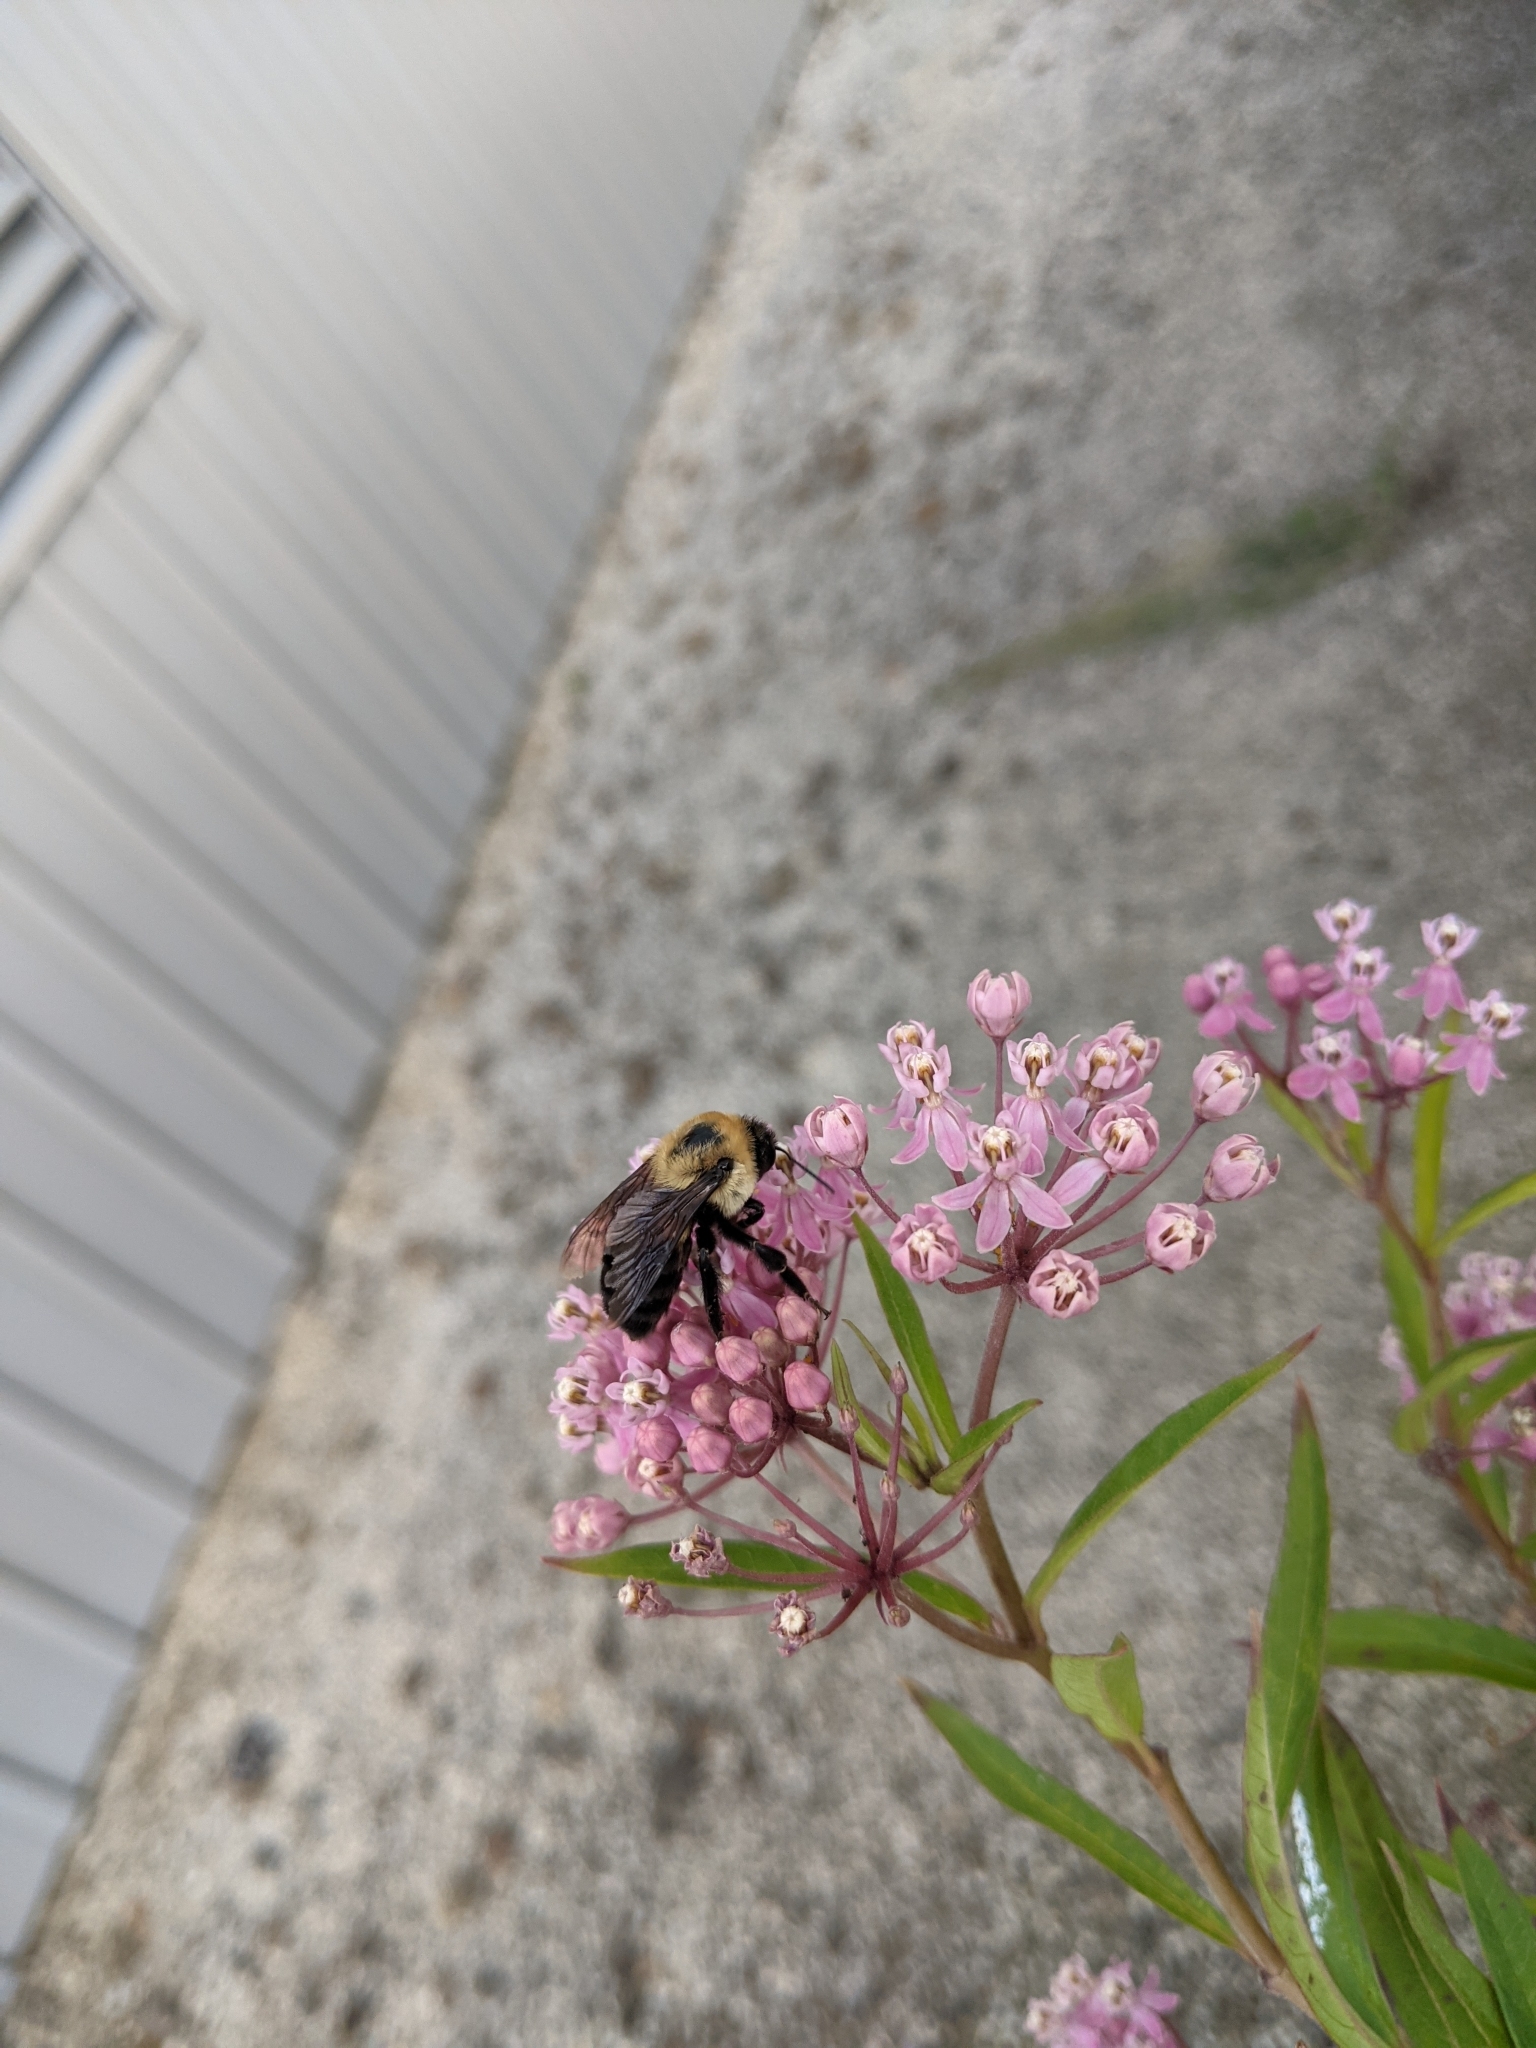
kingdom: Animalia
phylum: Arthropoda
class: Insecta
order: Hymenoptera
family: Apidae
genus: Bombus
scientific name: Bombus griseocollis
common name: Brown-belted bumble bee
